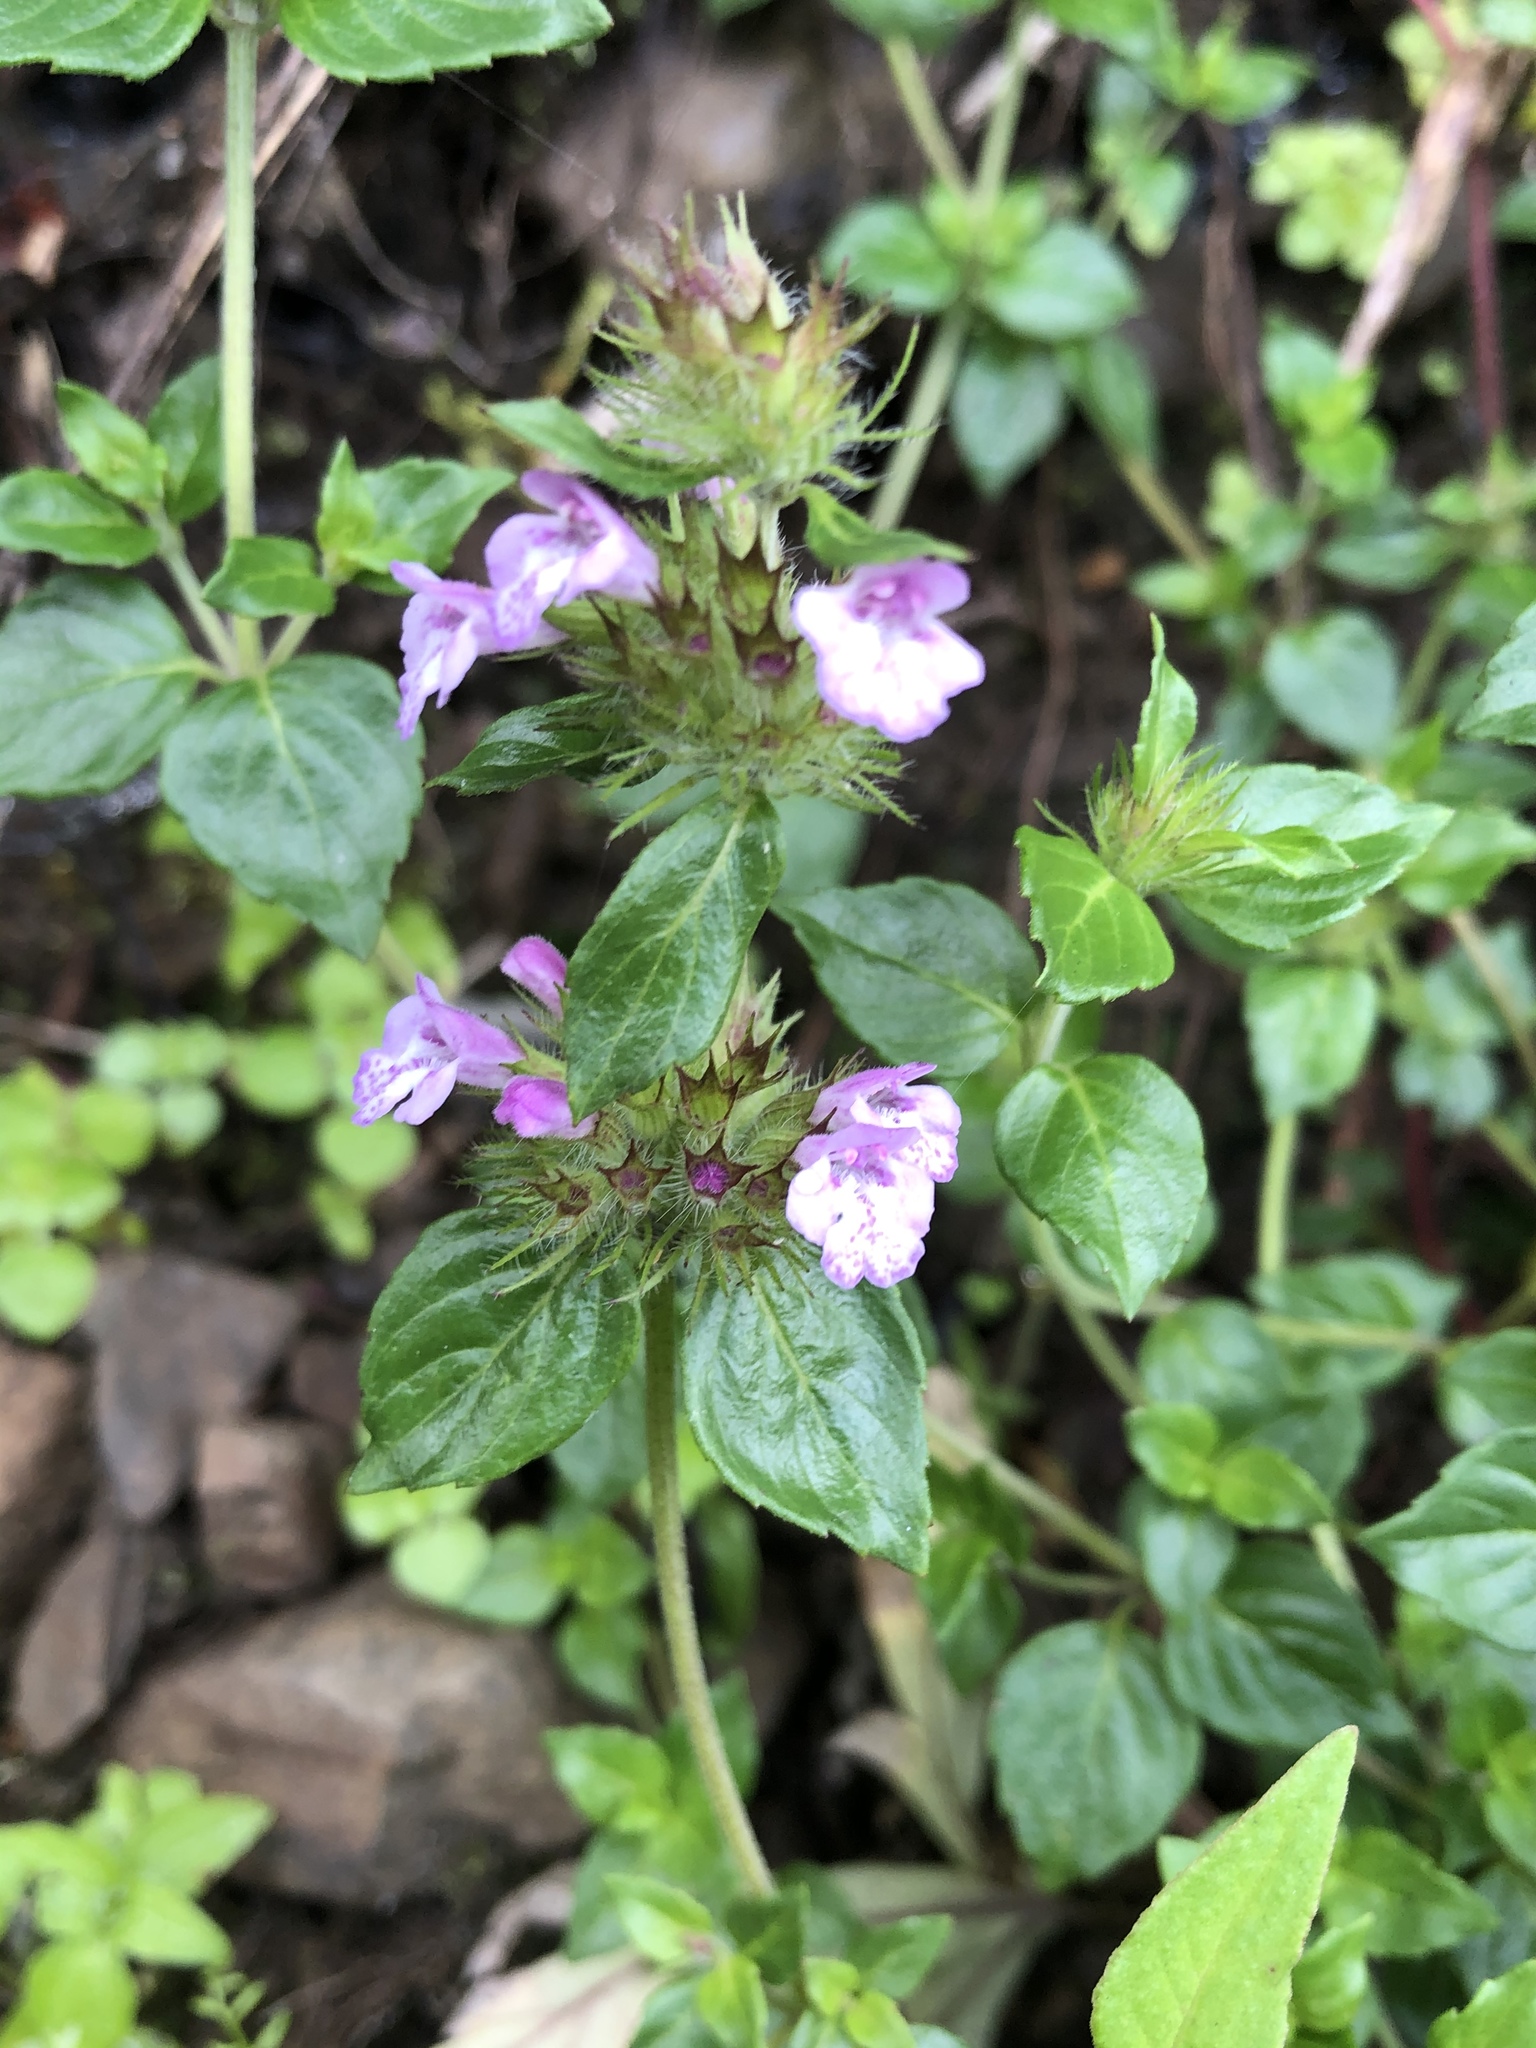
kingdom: Plantae
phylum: Tracheophyta
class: Magnoliopsida
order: Lamiales
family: Lamiaceae
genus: Clinopodium
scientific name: Clinopodium laxiflorum
